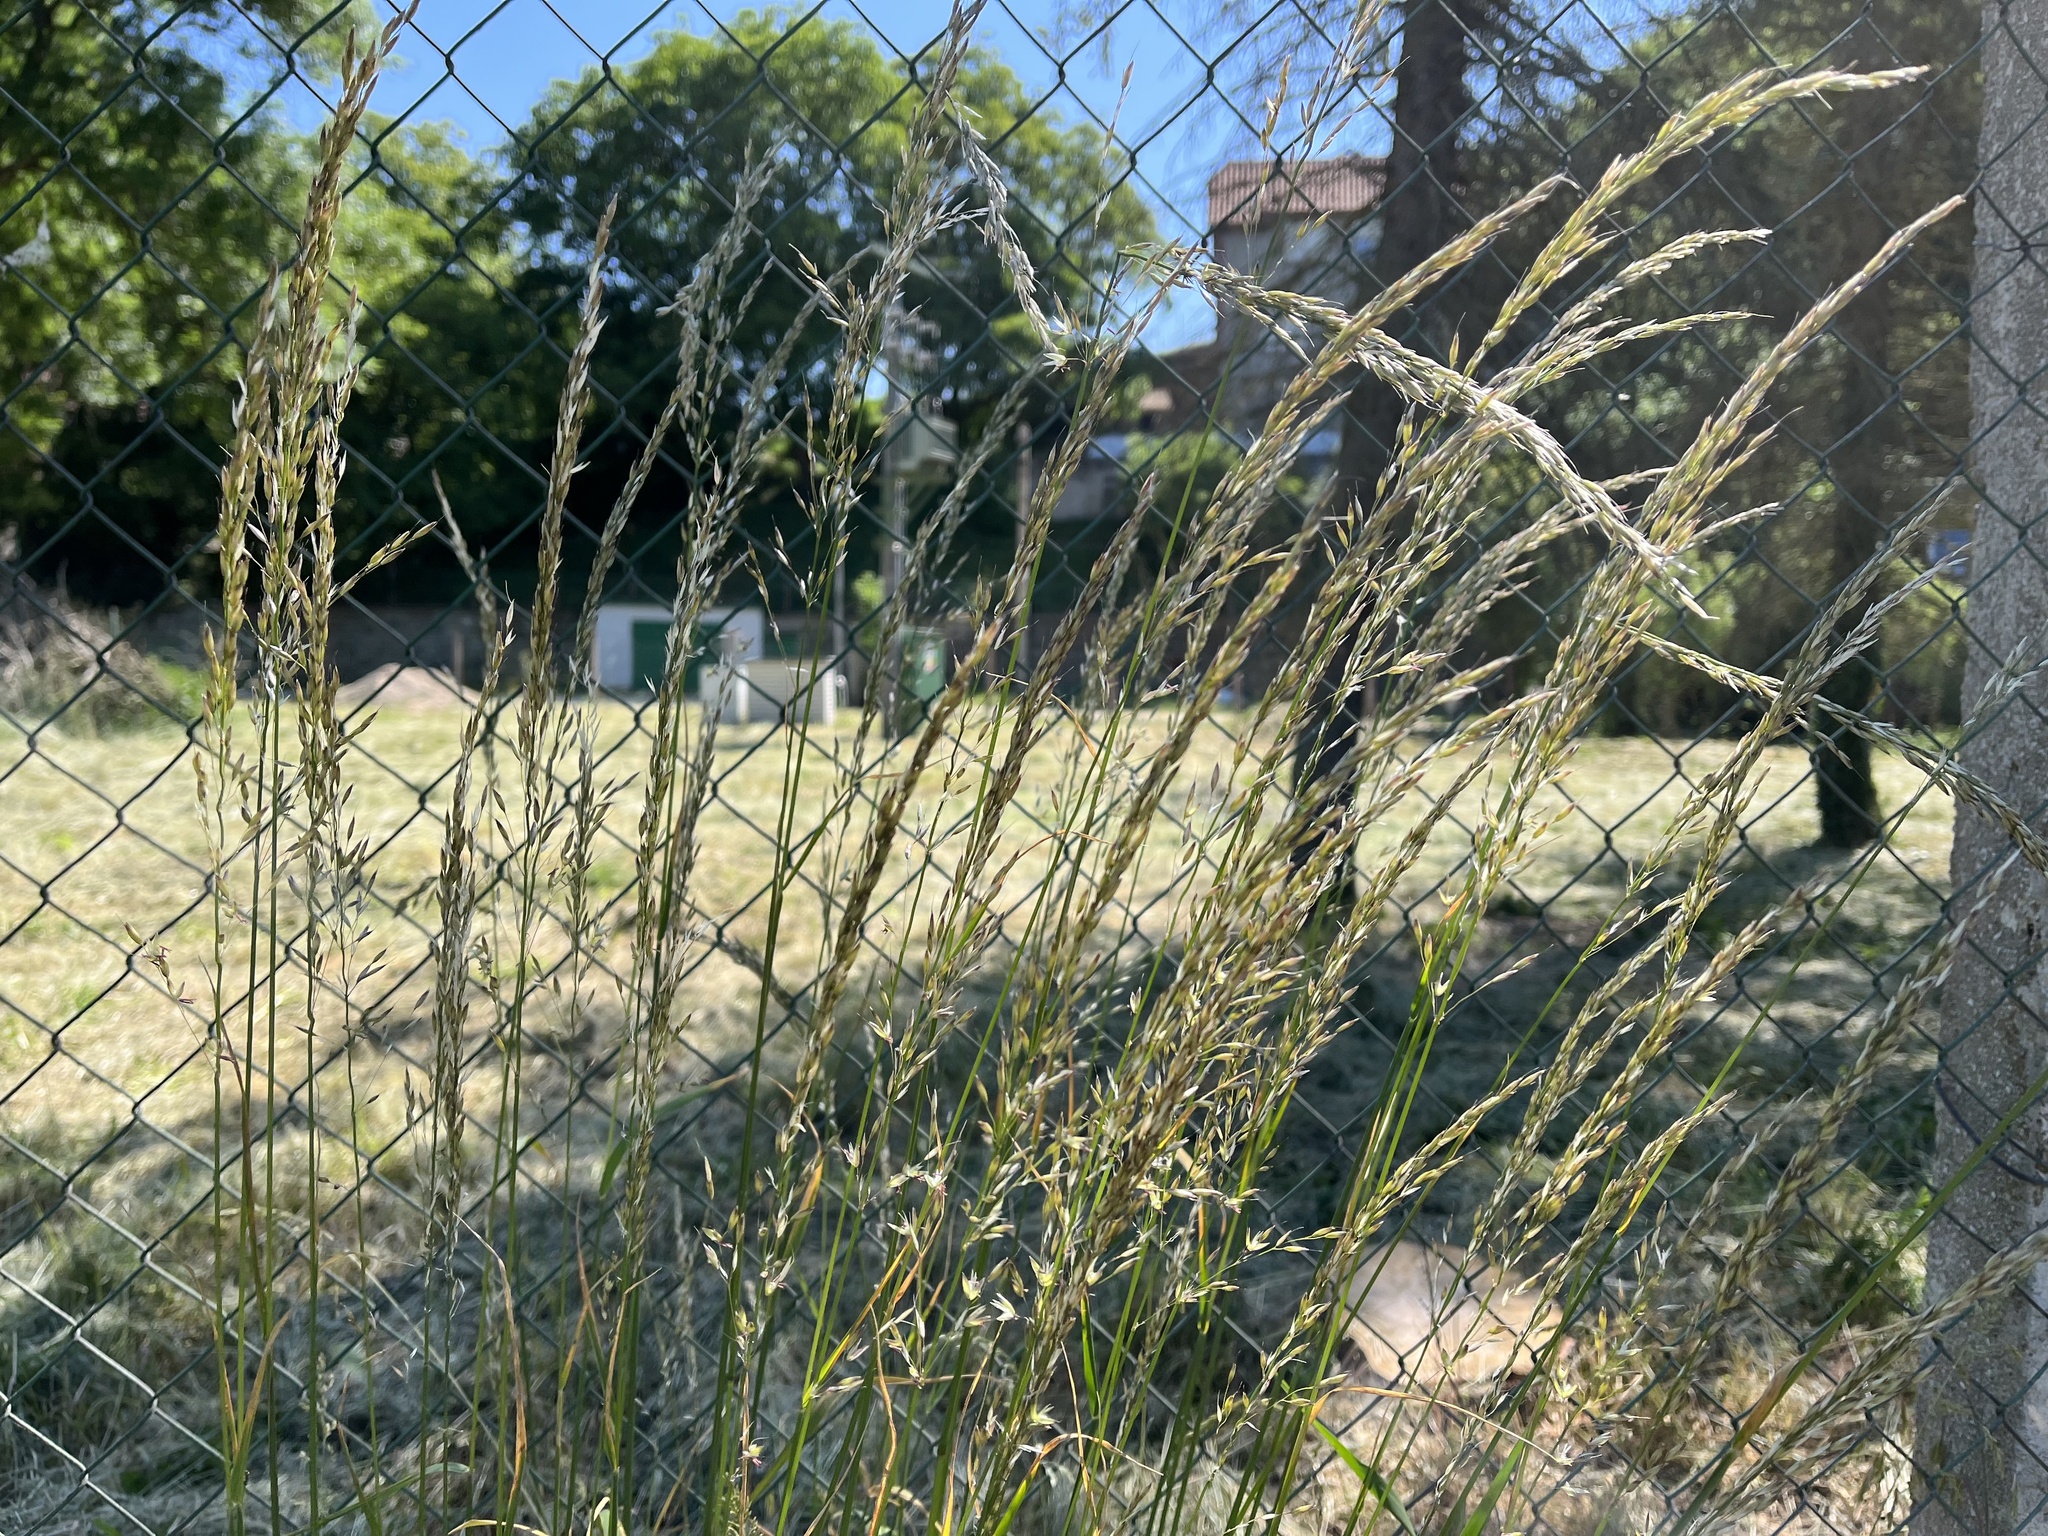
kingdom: Plantae
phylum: Tracheophyta
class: Liliopsida
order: Poales
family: Poaceae
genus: Arrhenatherum
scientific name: Arrhenatherum elatius
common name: Tall oatgrass
